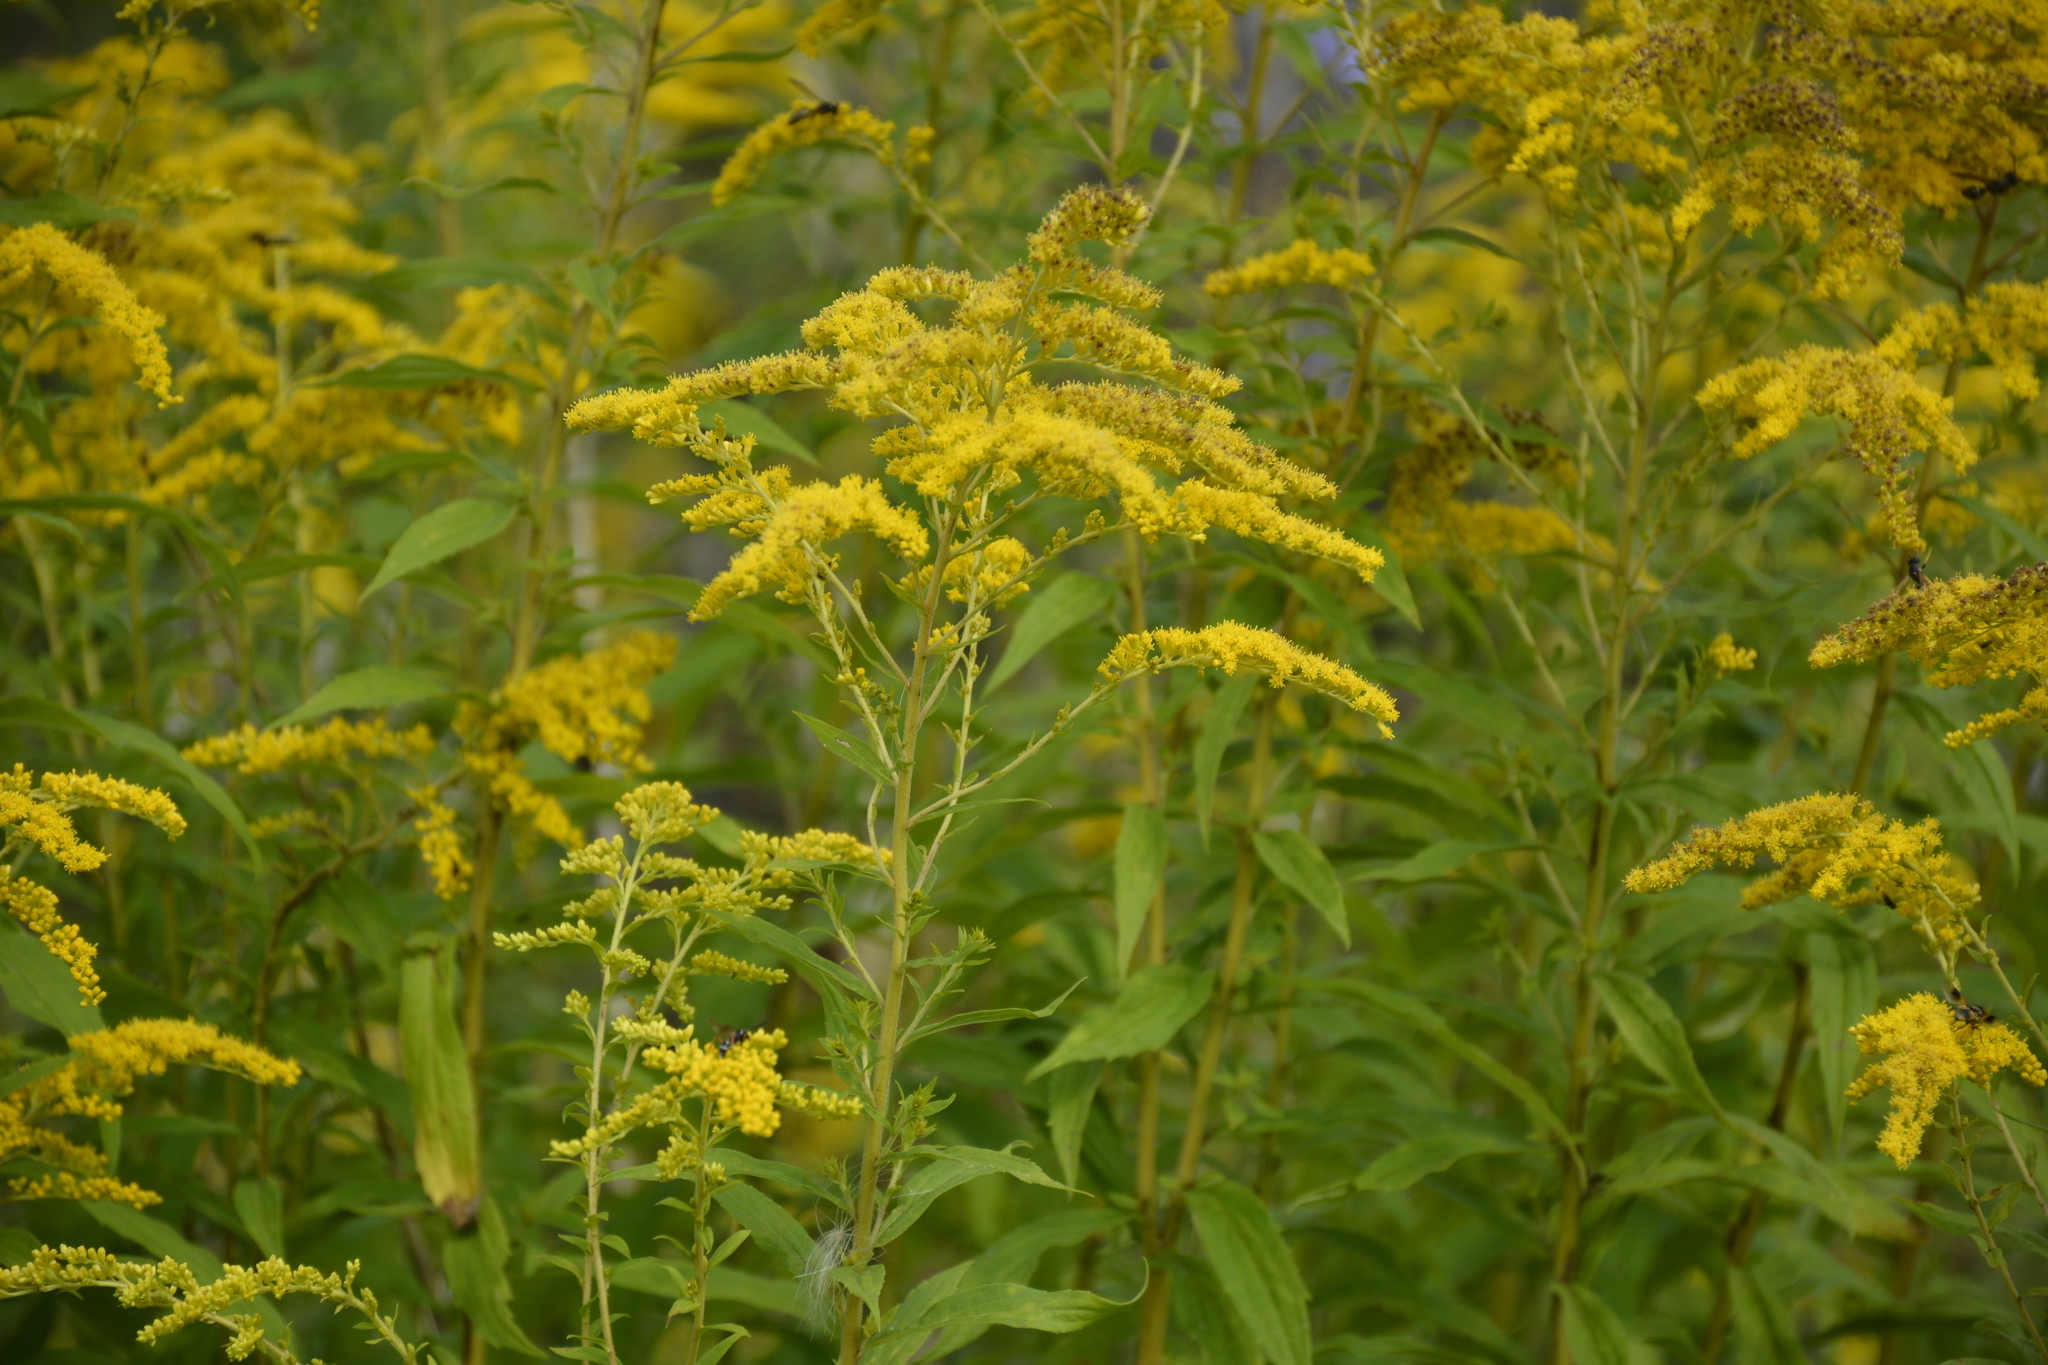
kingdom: Plantae
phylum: Tracheophyta
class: Magnoliopsida
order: Asterales
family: Asteraceae
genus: Solidago
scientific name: Solidago canadensis
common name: Canada goldenrod
